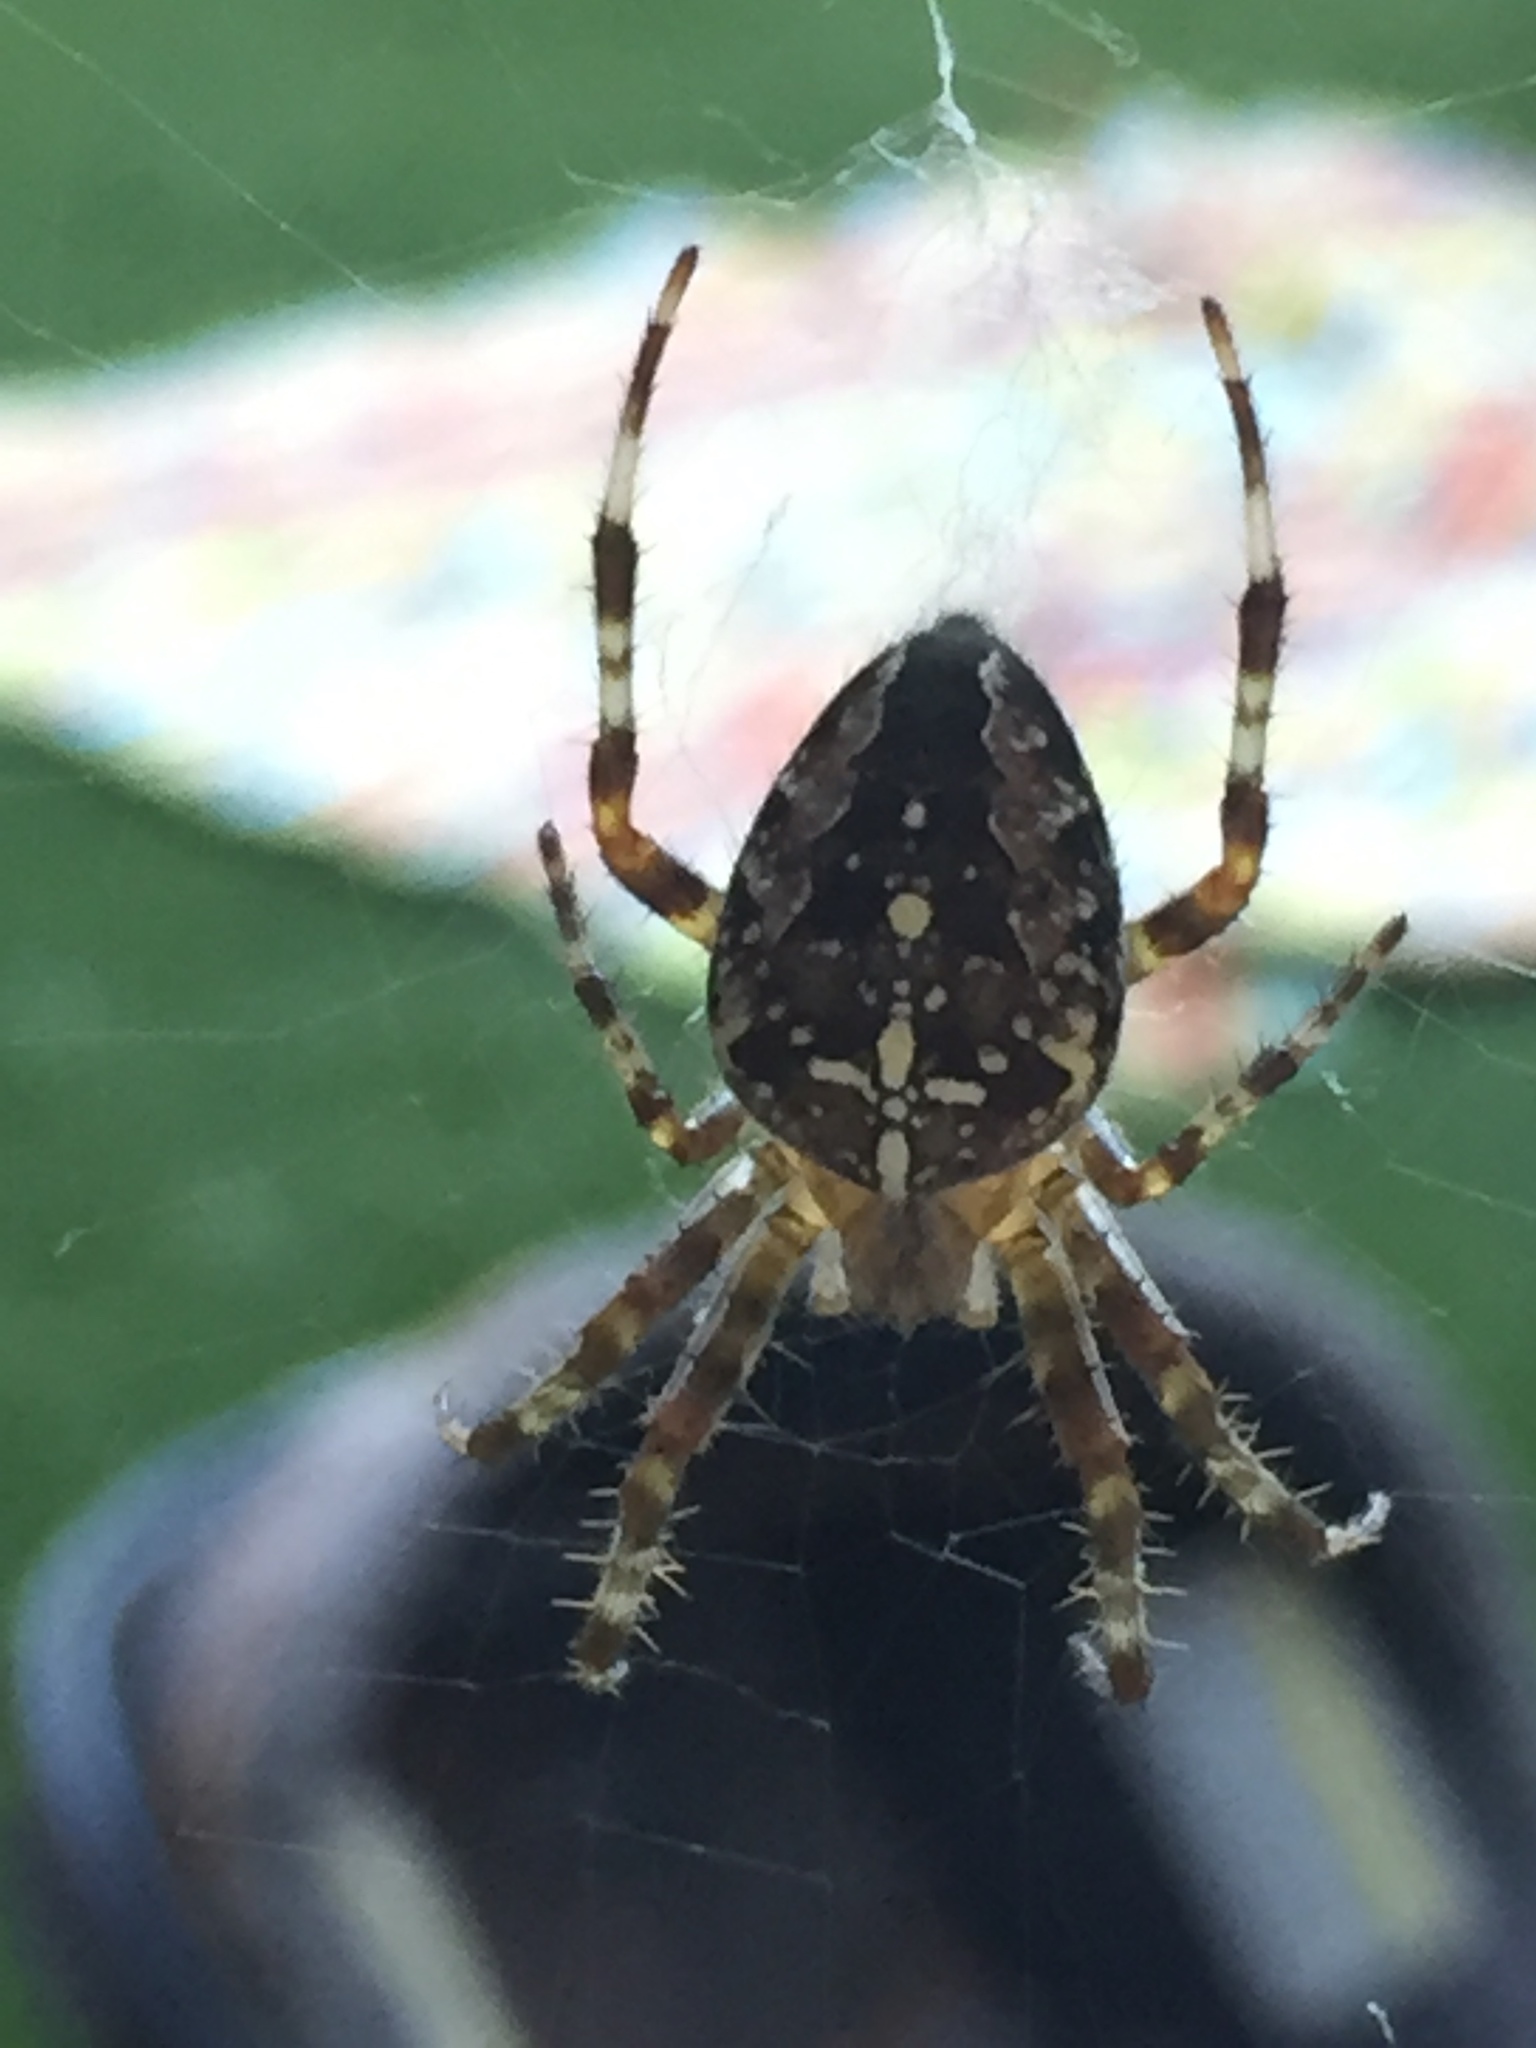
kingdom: Animalia
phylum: Arthropoda
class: Arachnida
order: Araneae
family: Araneidae
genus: Araneus
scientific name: Araneus diadematus
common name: Cross orbweaver
